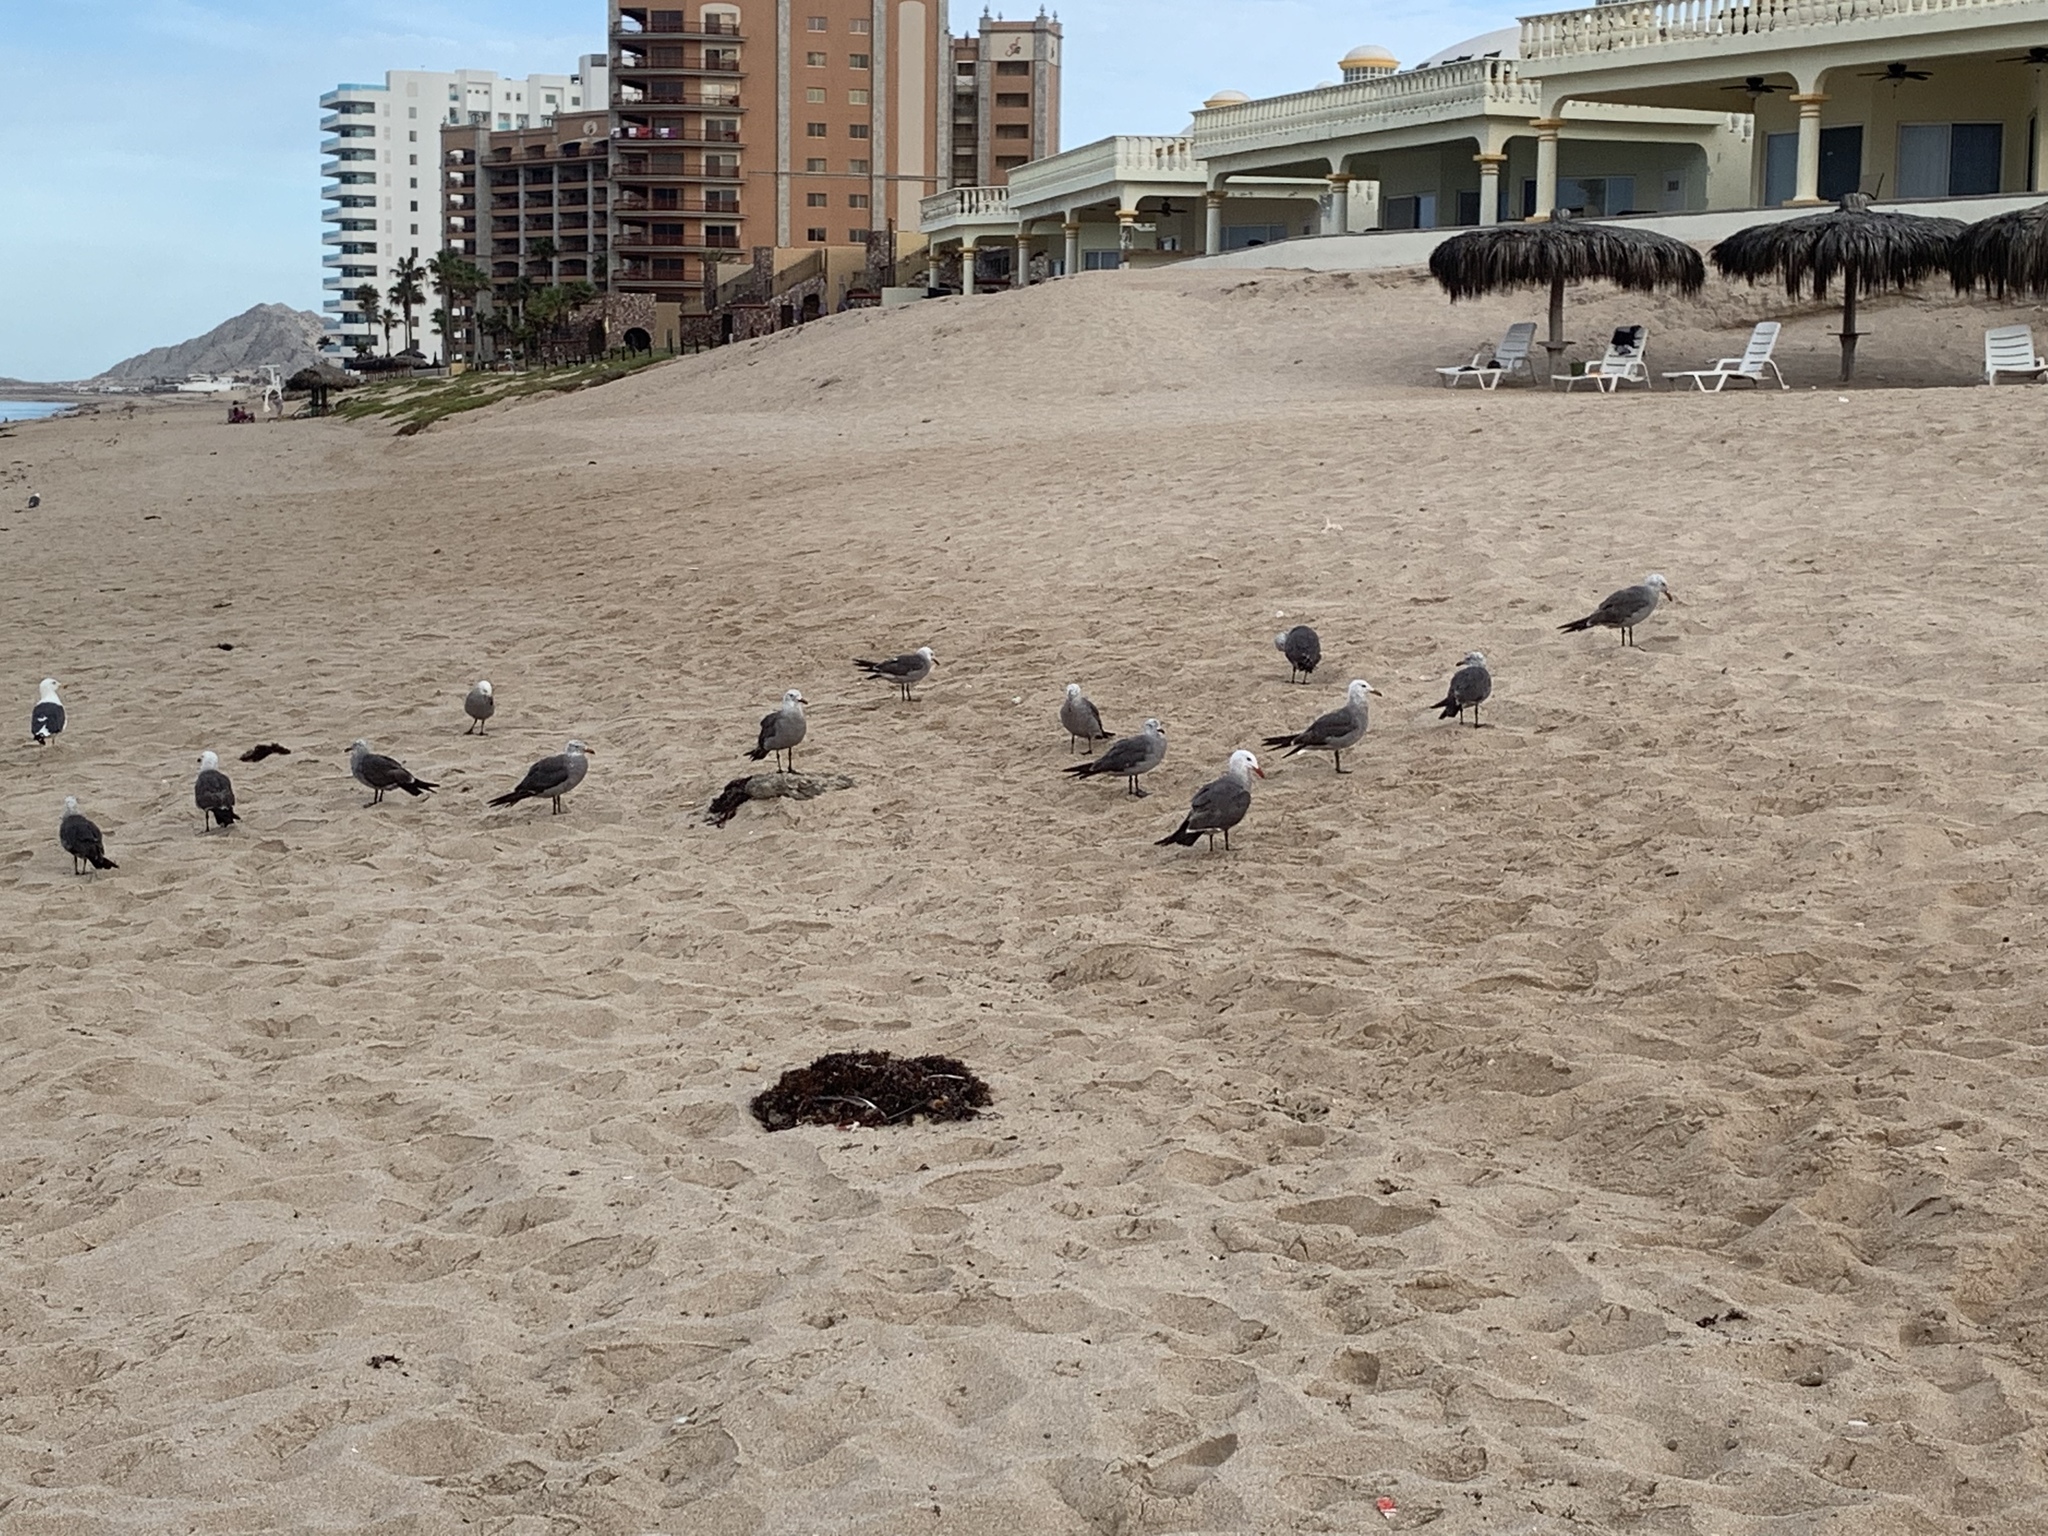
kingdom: Animalia
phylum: Chordata
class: Aves
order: Charadriiformes
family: Laridae
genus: Larus
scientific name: Larus heermanni
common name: Heermann's gull
